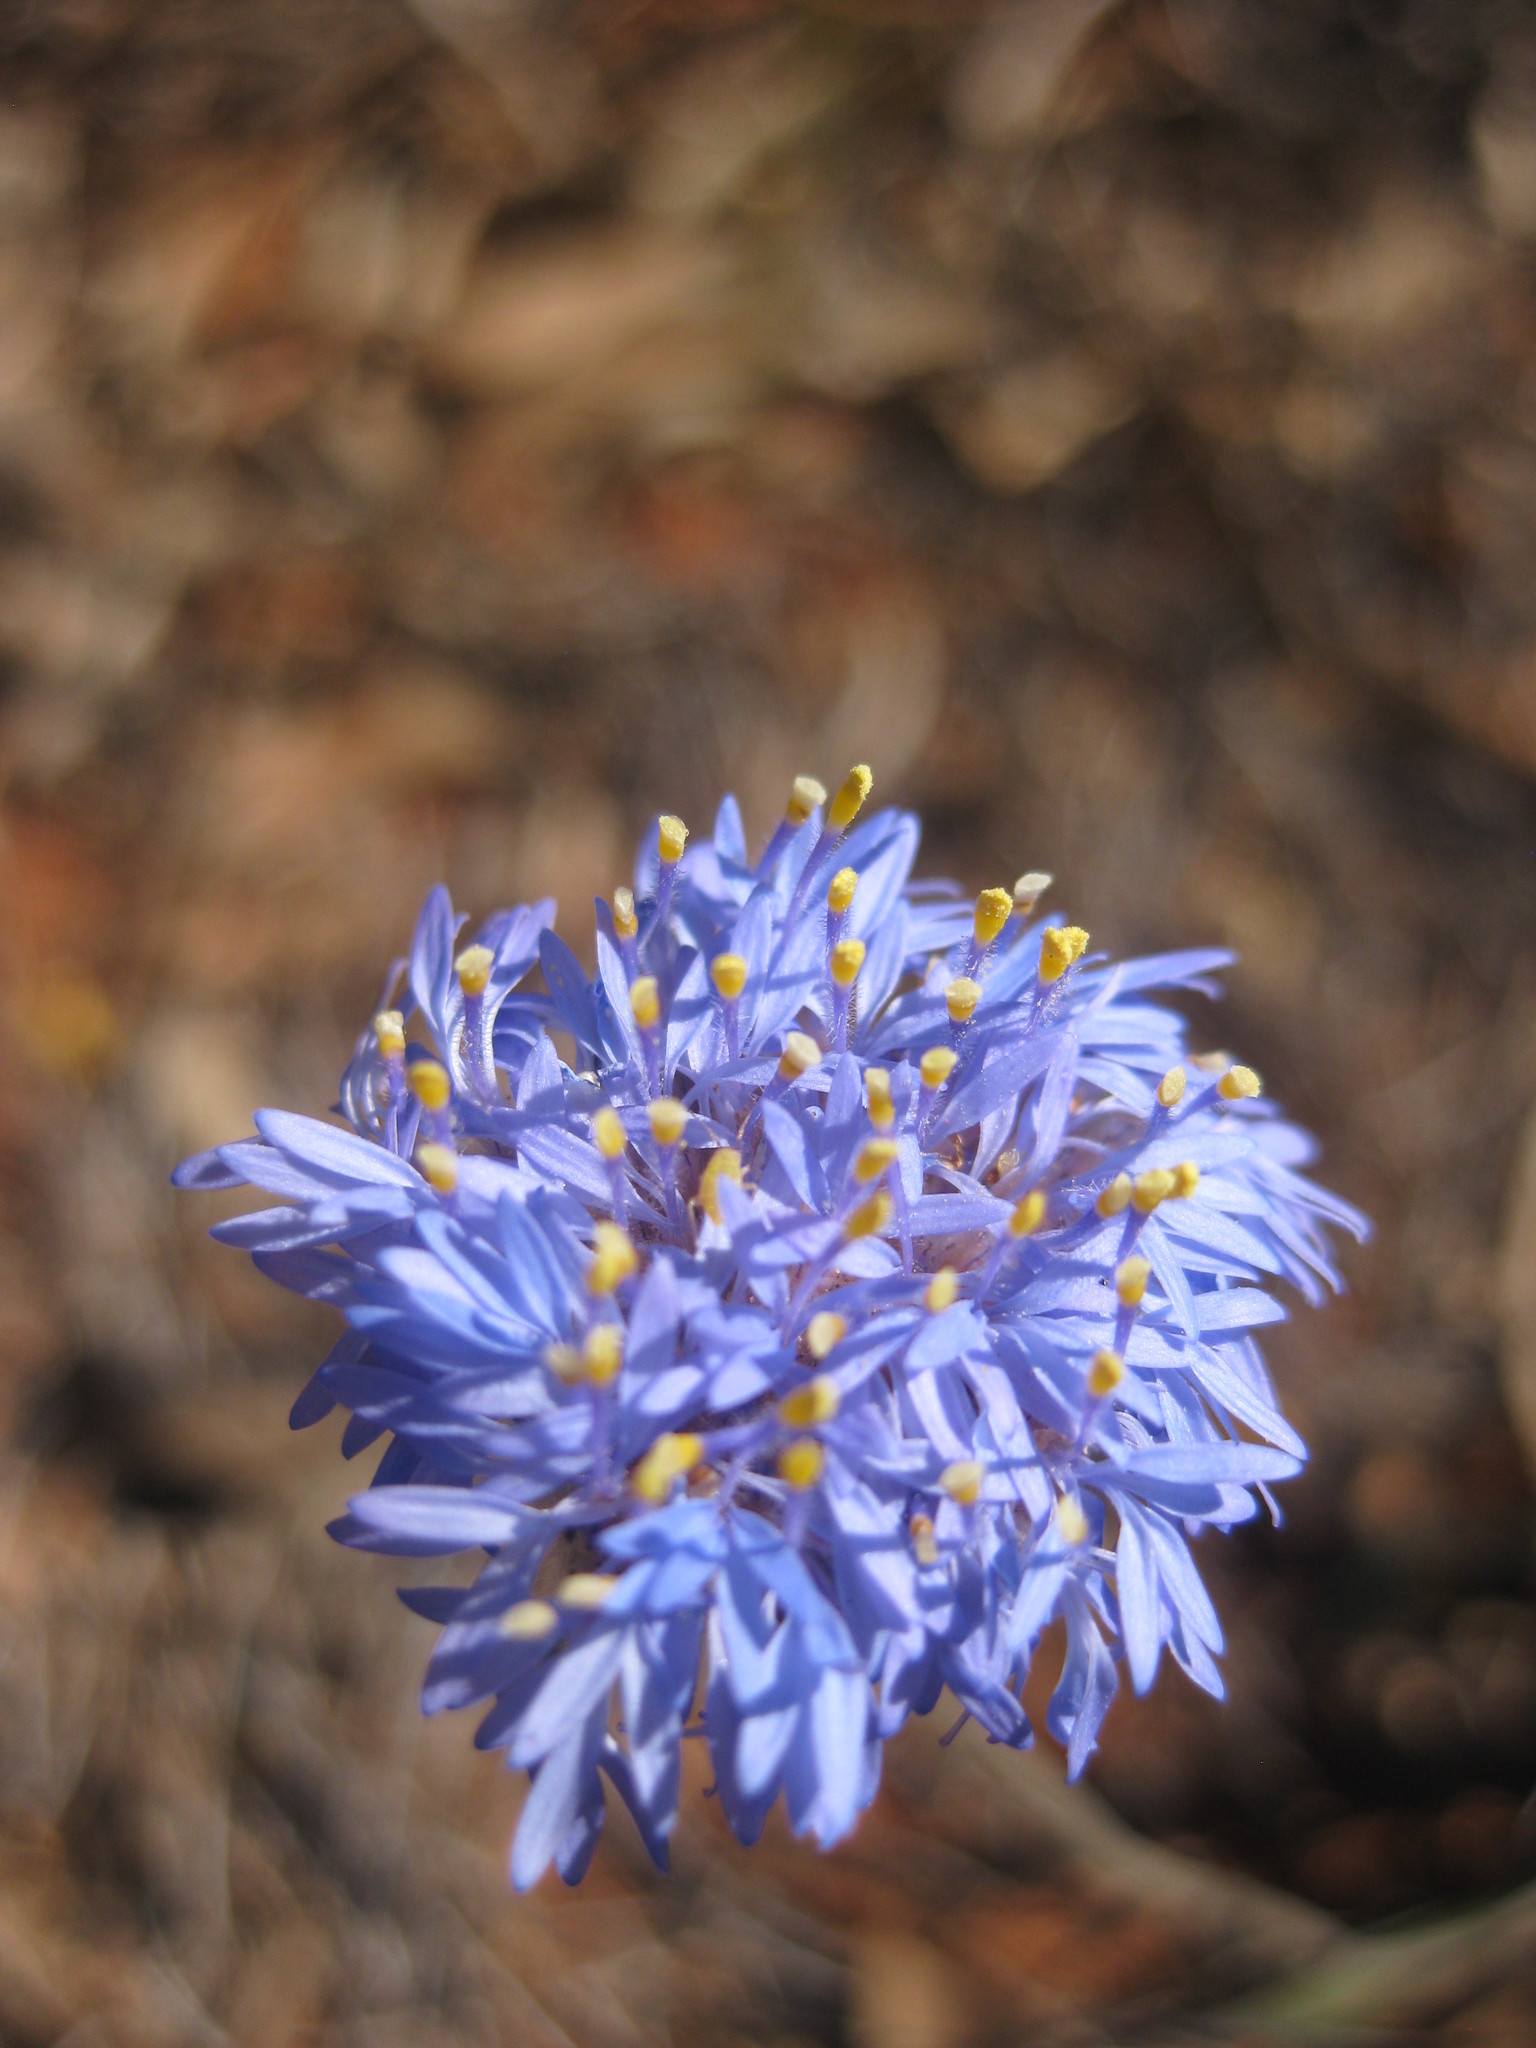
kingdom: Plantae
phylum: Tracheophyta
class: Magnoliopsida
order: Asterales
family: Goodeniaceae
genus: Brunonia
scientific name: Brunonia australis
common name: Blue pincushion
